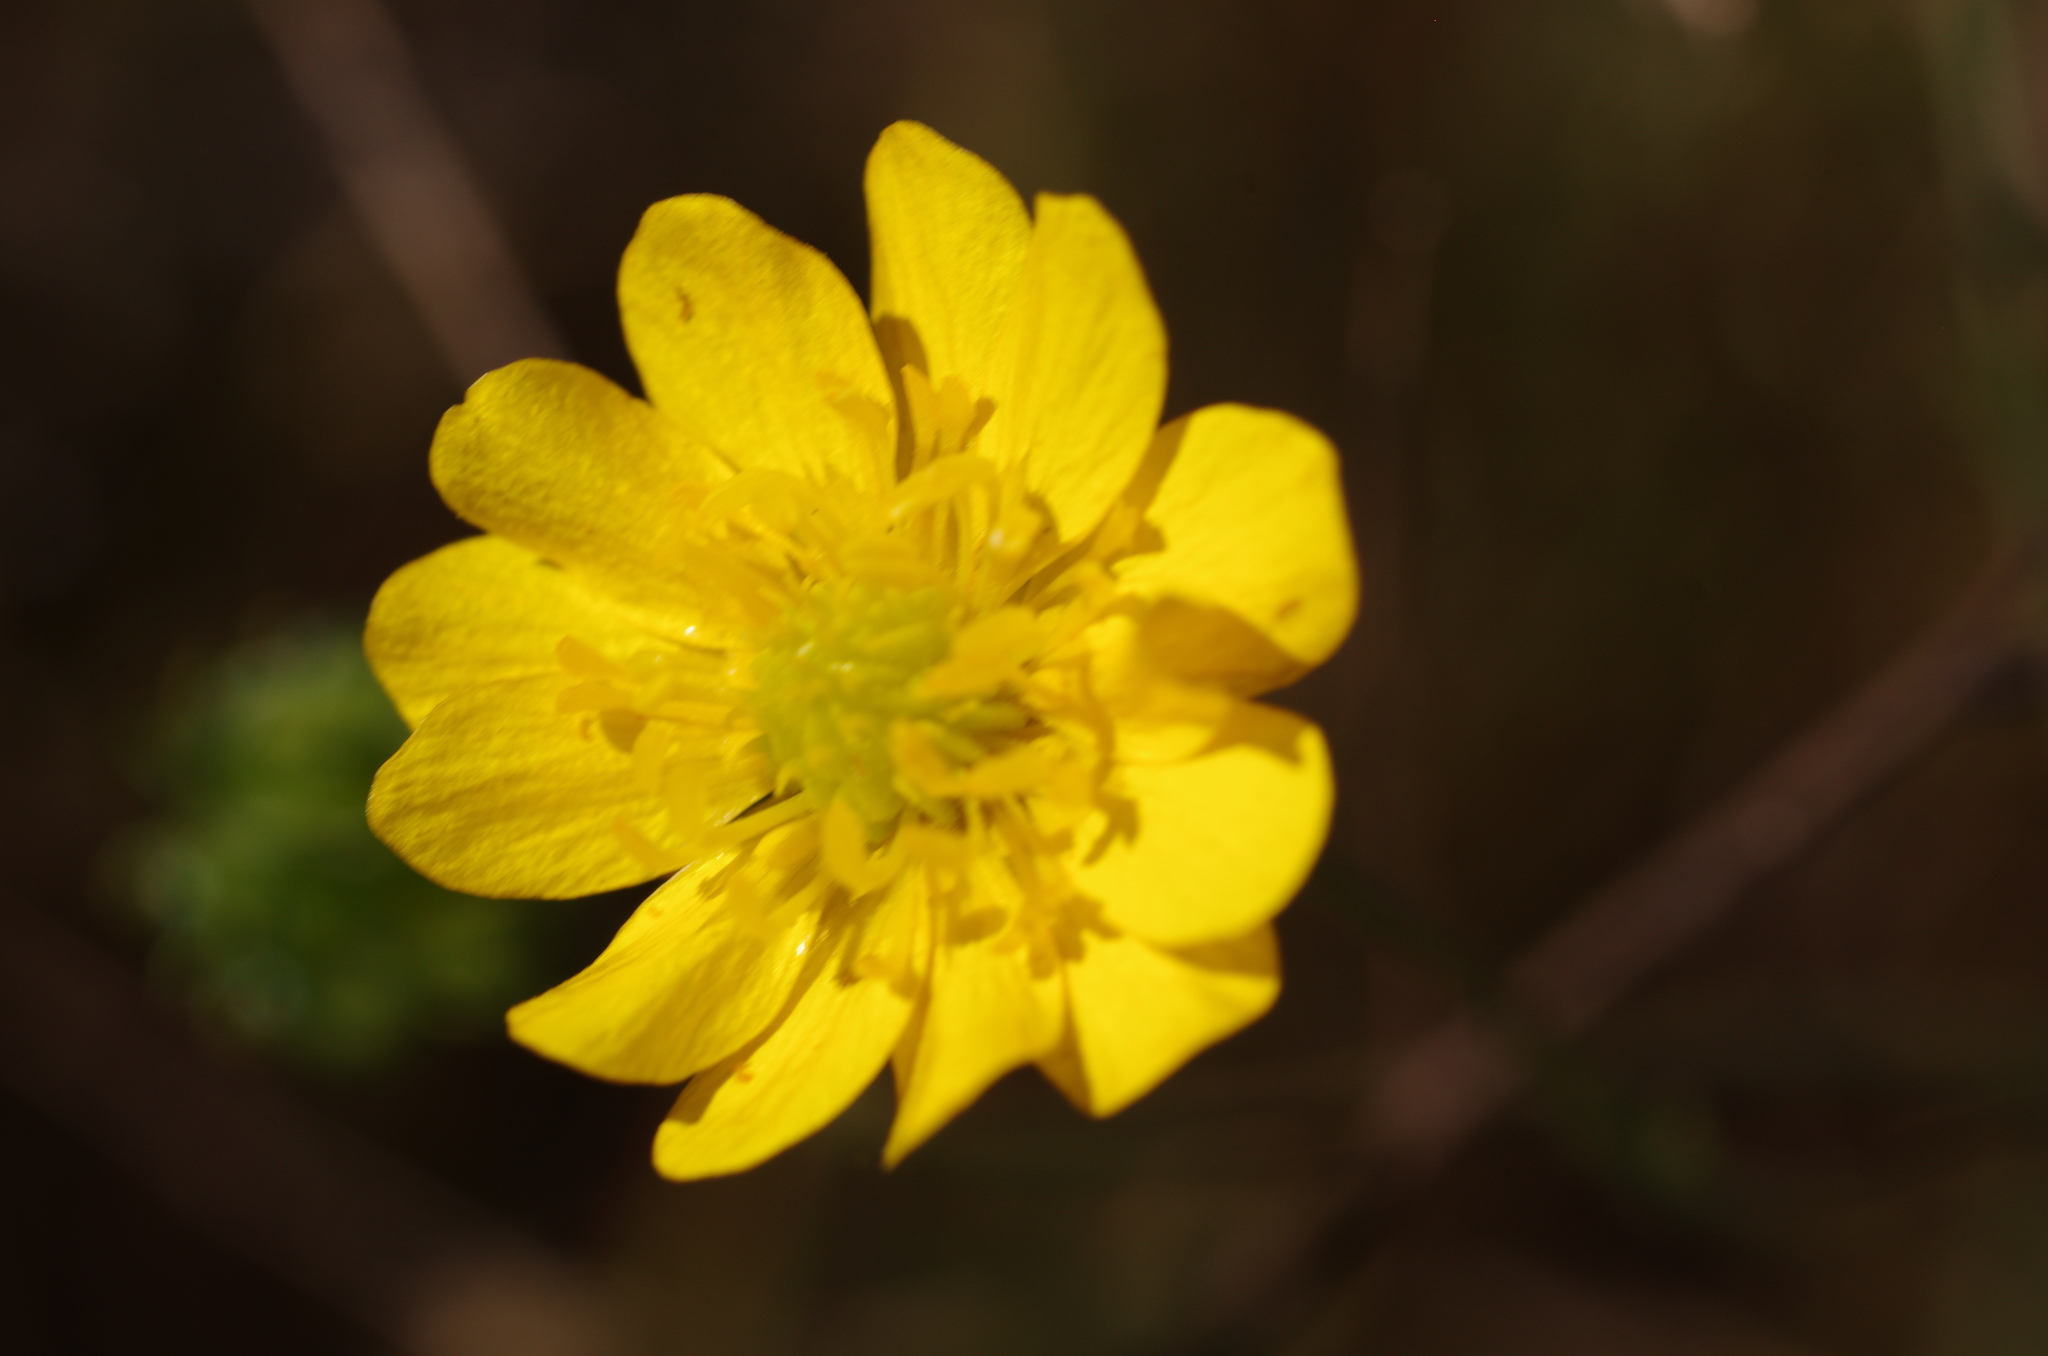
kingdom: Plantae
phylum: Tracheophyta
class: Magnoliopsida
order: Ranunculales
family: Ranunculaceae
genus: Ranunculus
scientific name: Ranunculus californicus
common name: California buttercup
